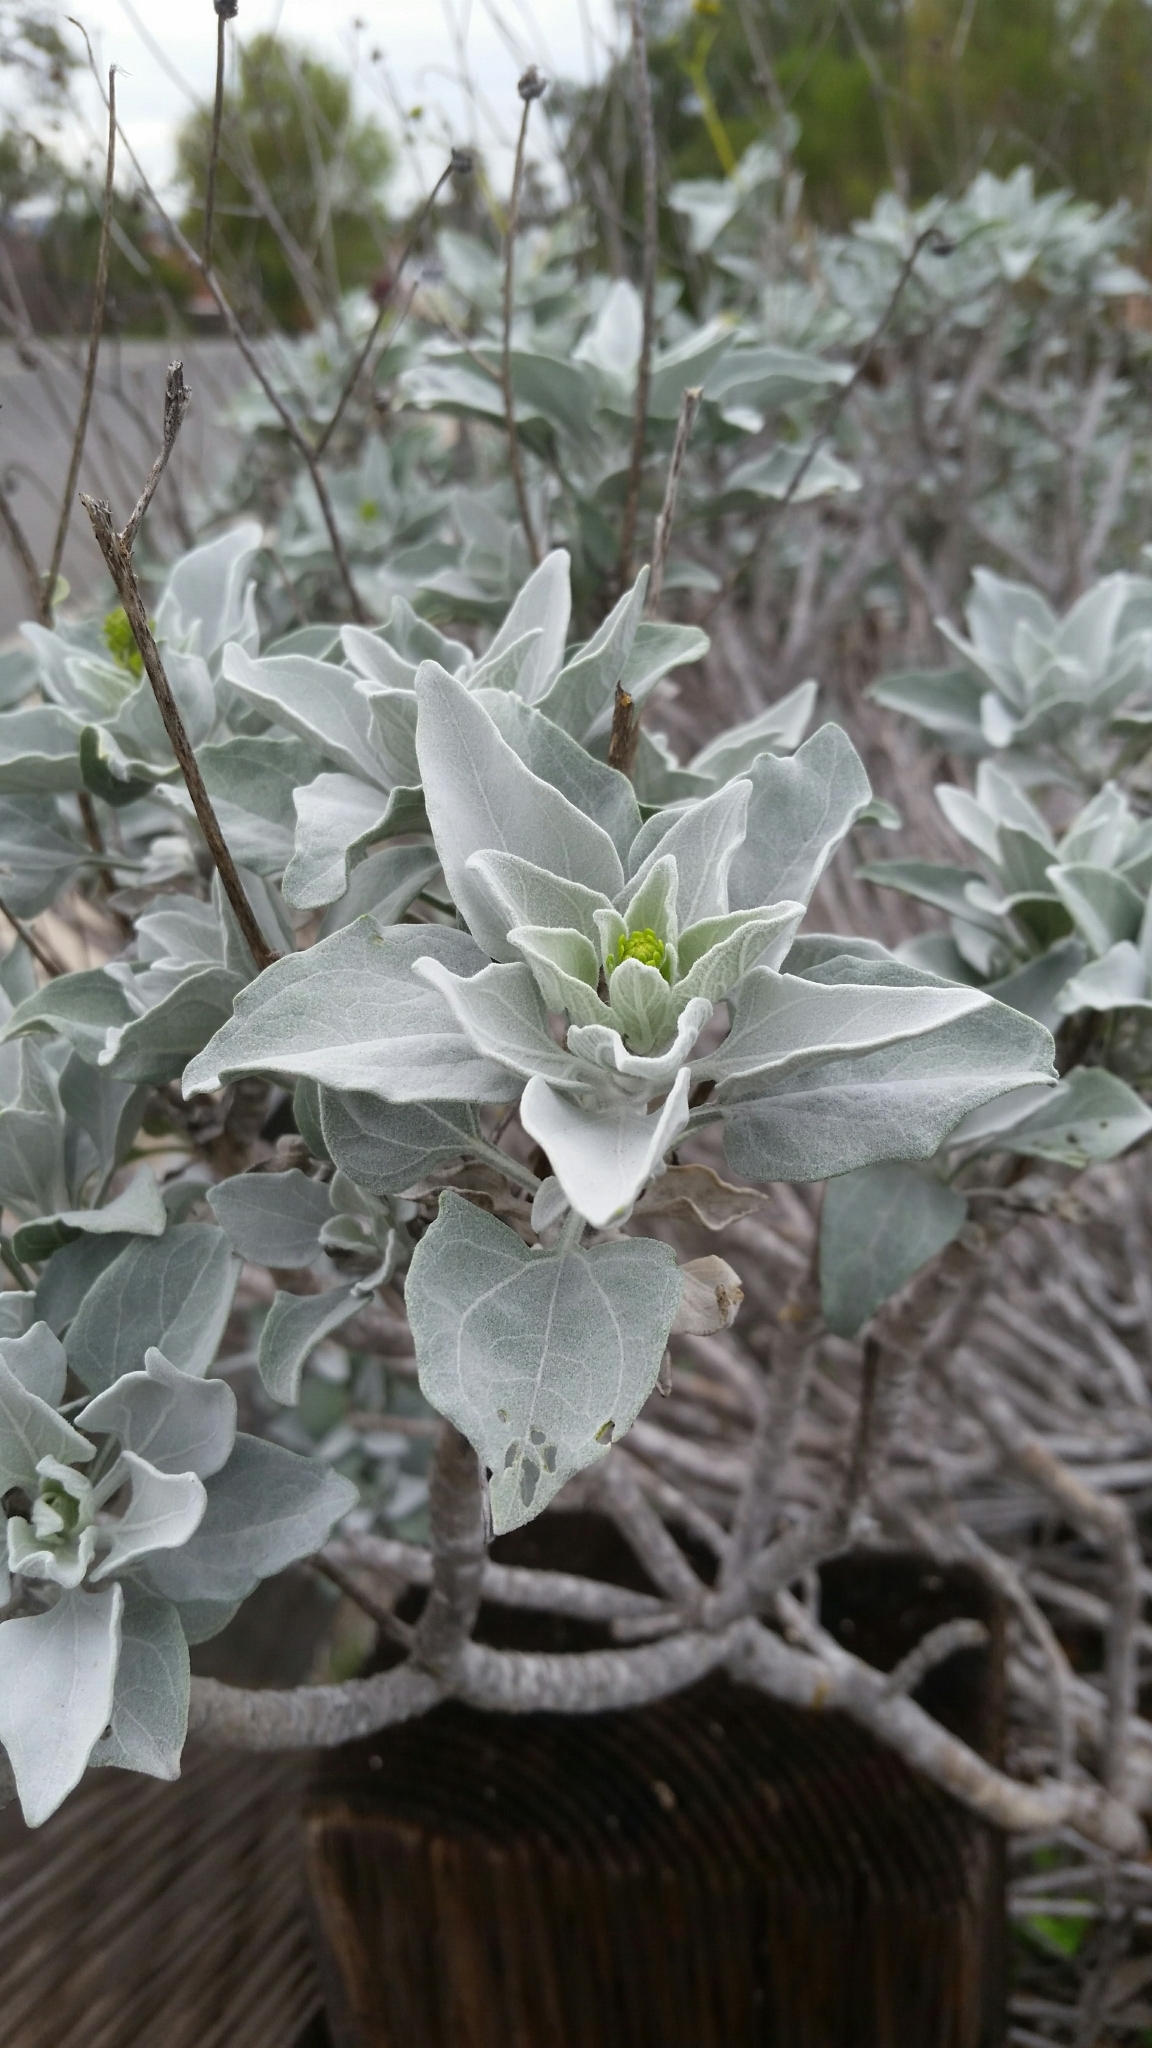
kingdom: Plantae
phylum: Tracheophyta
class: Magnoliopsida
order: Asterales
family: Asteraceae
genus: Encelia
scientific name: Encelia farinosa
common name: Brittlebush
